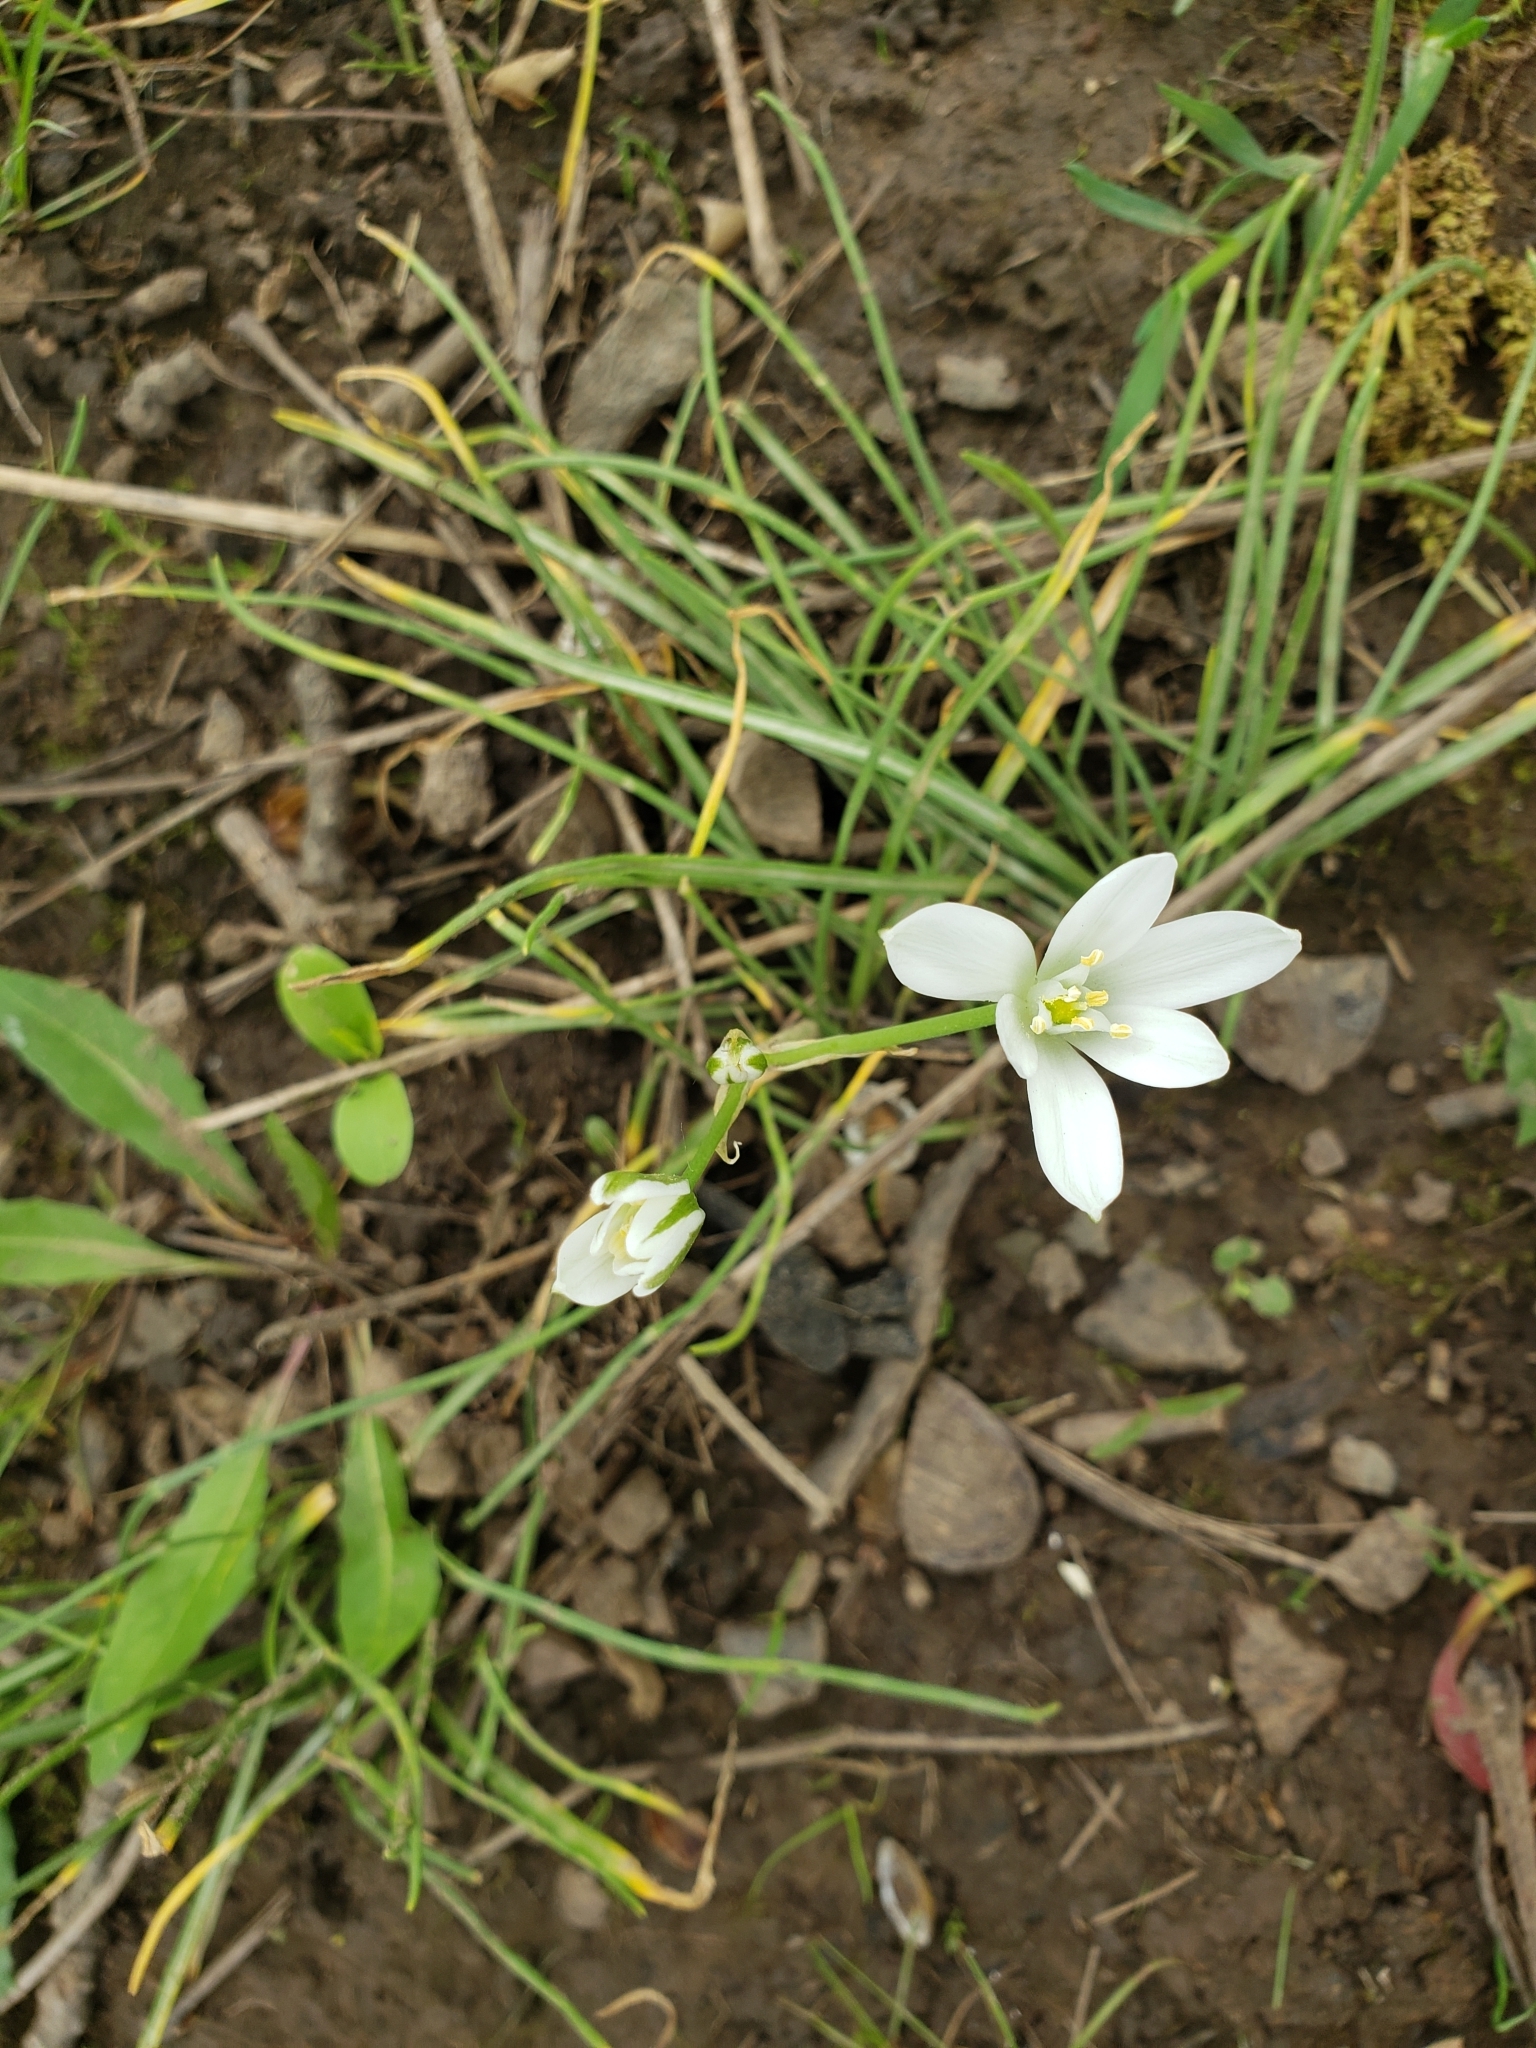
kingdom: Plantae
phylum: Tracheophyta
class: Liliopsida
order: Asparagales
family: Asparagaceae
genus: Ornithogalum
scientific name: Ornithogalum umbellatum
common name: Garden star-of-bethlehem
